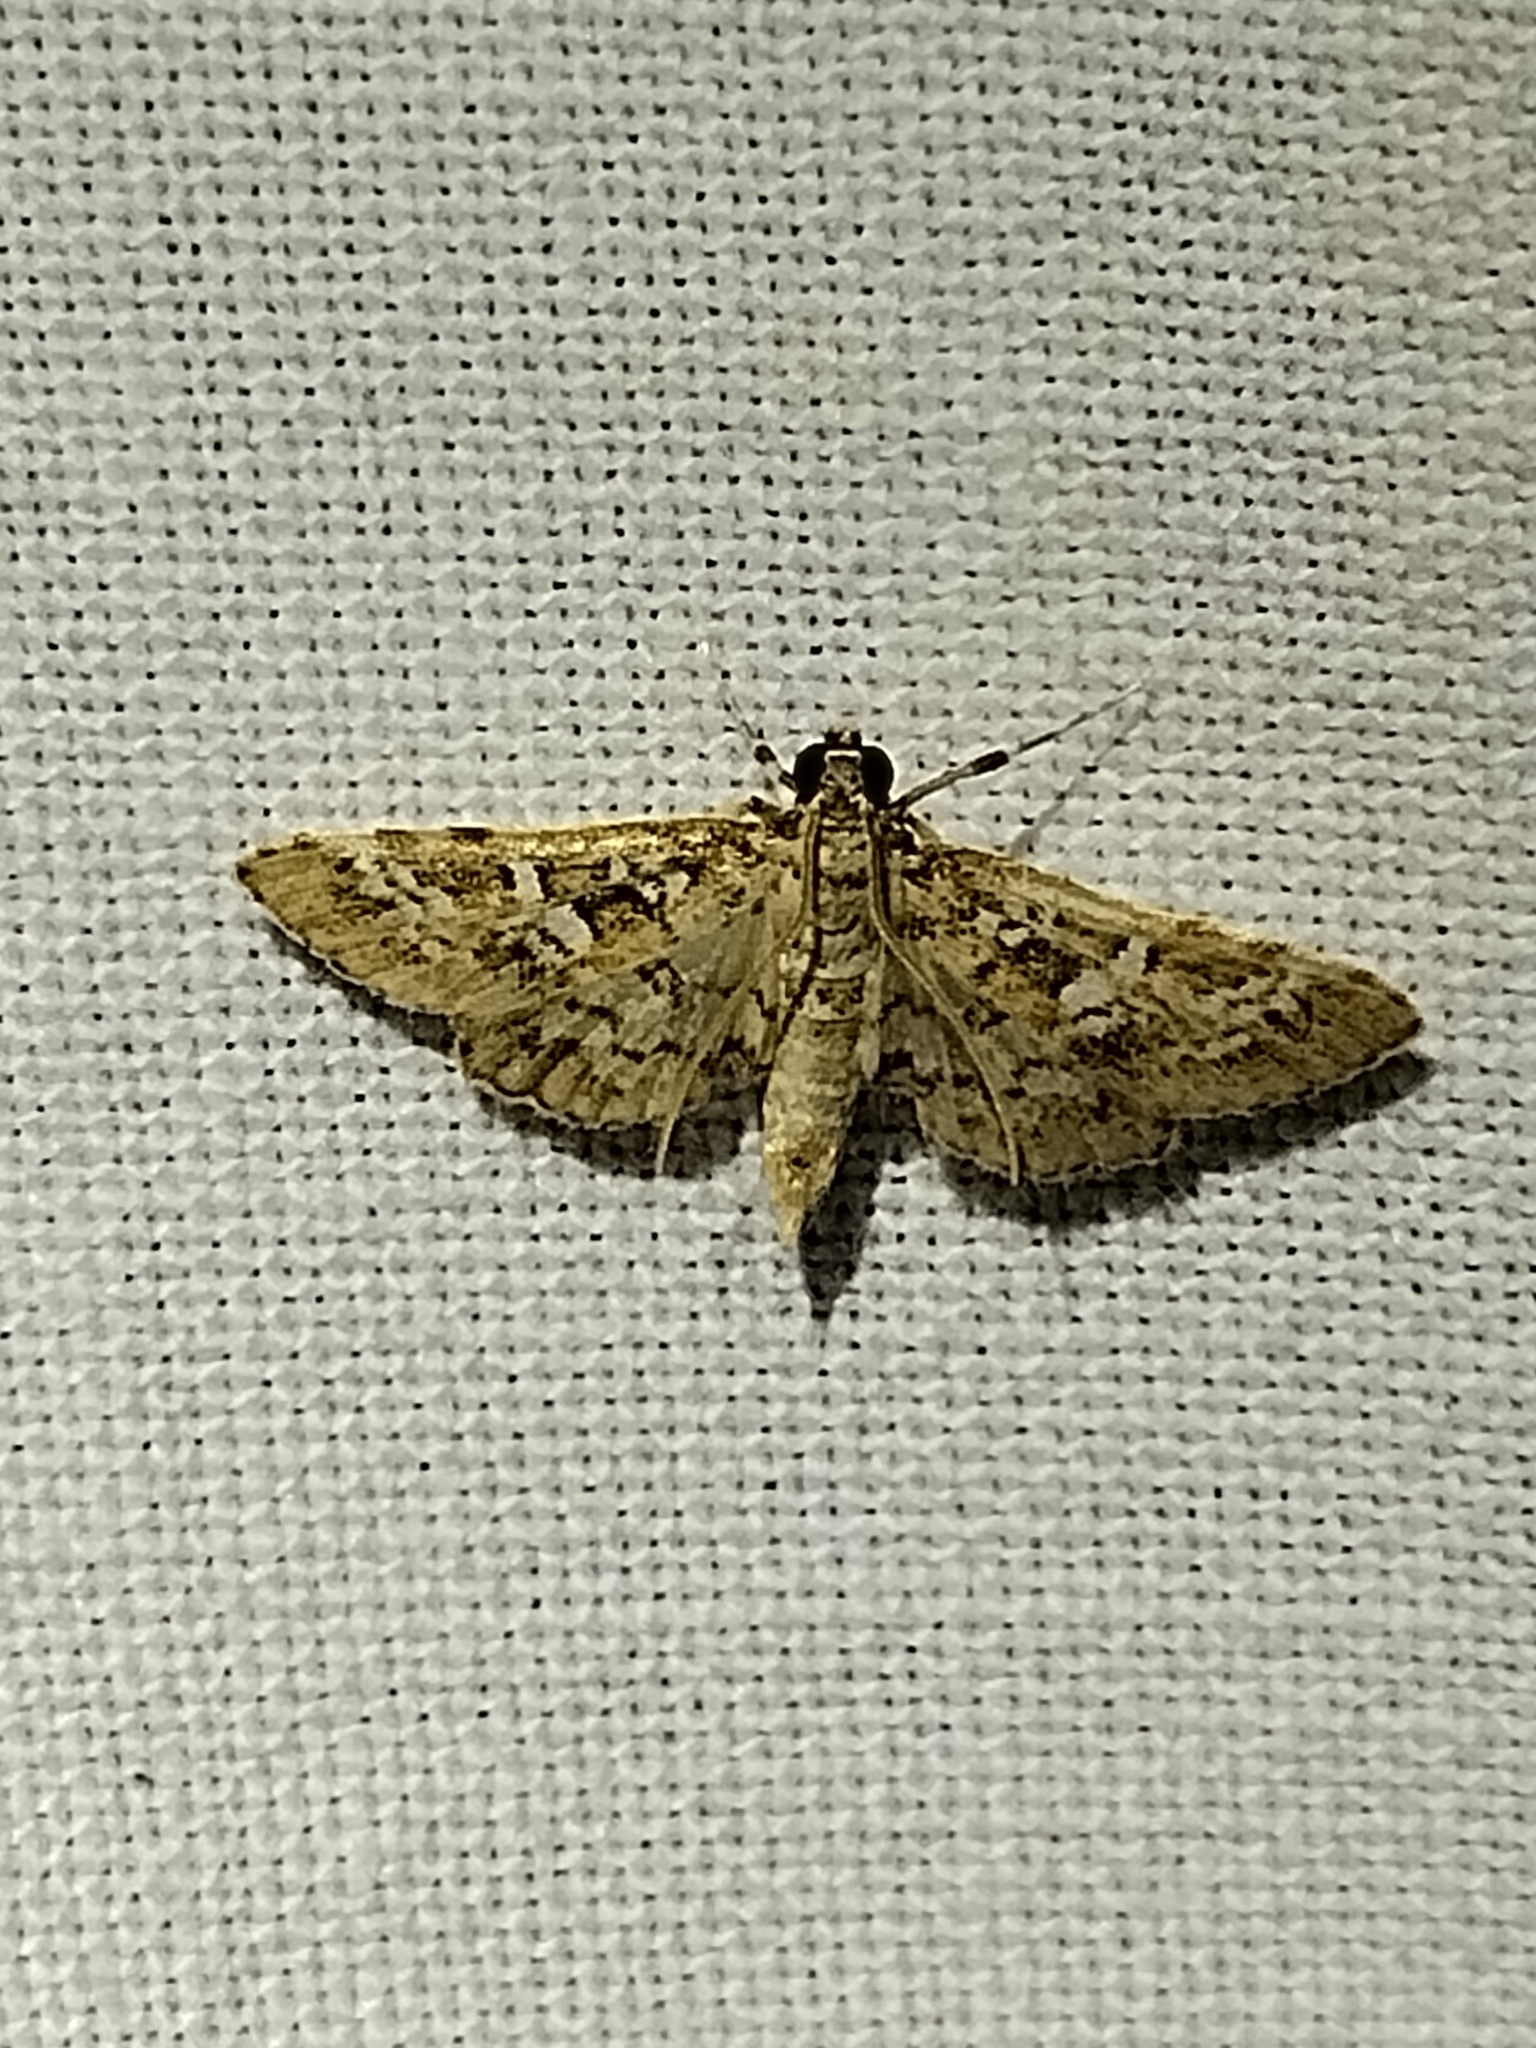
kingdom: Animalia
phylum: Arthropoda
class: Insecta
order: Lepidoptera
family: Crambidae
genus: Samea
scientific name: Samea multiplicalis
